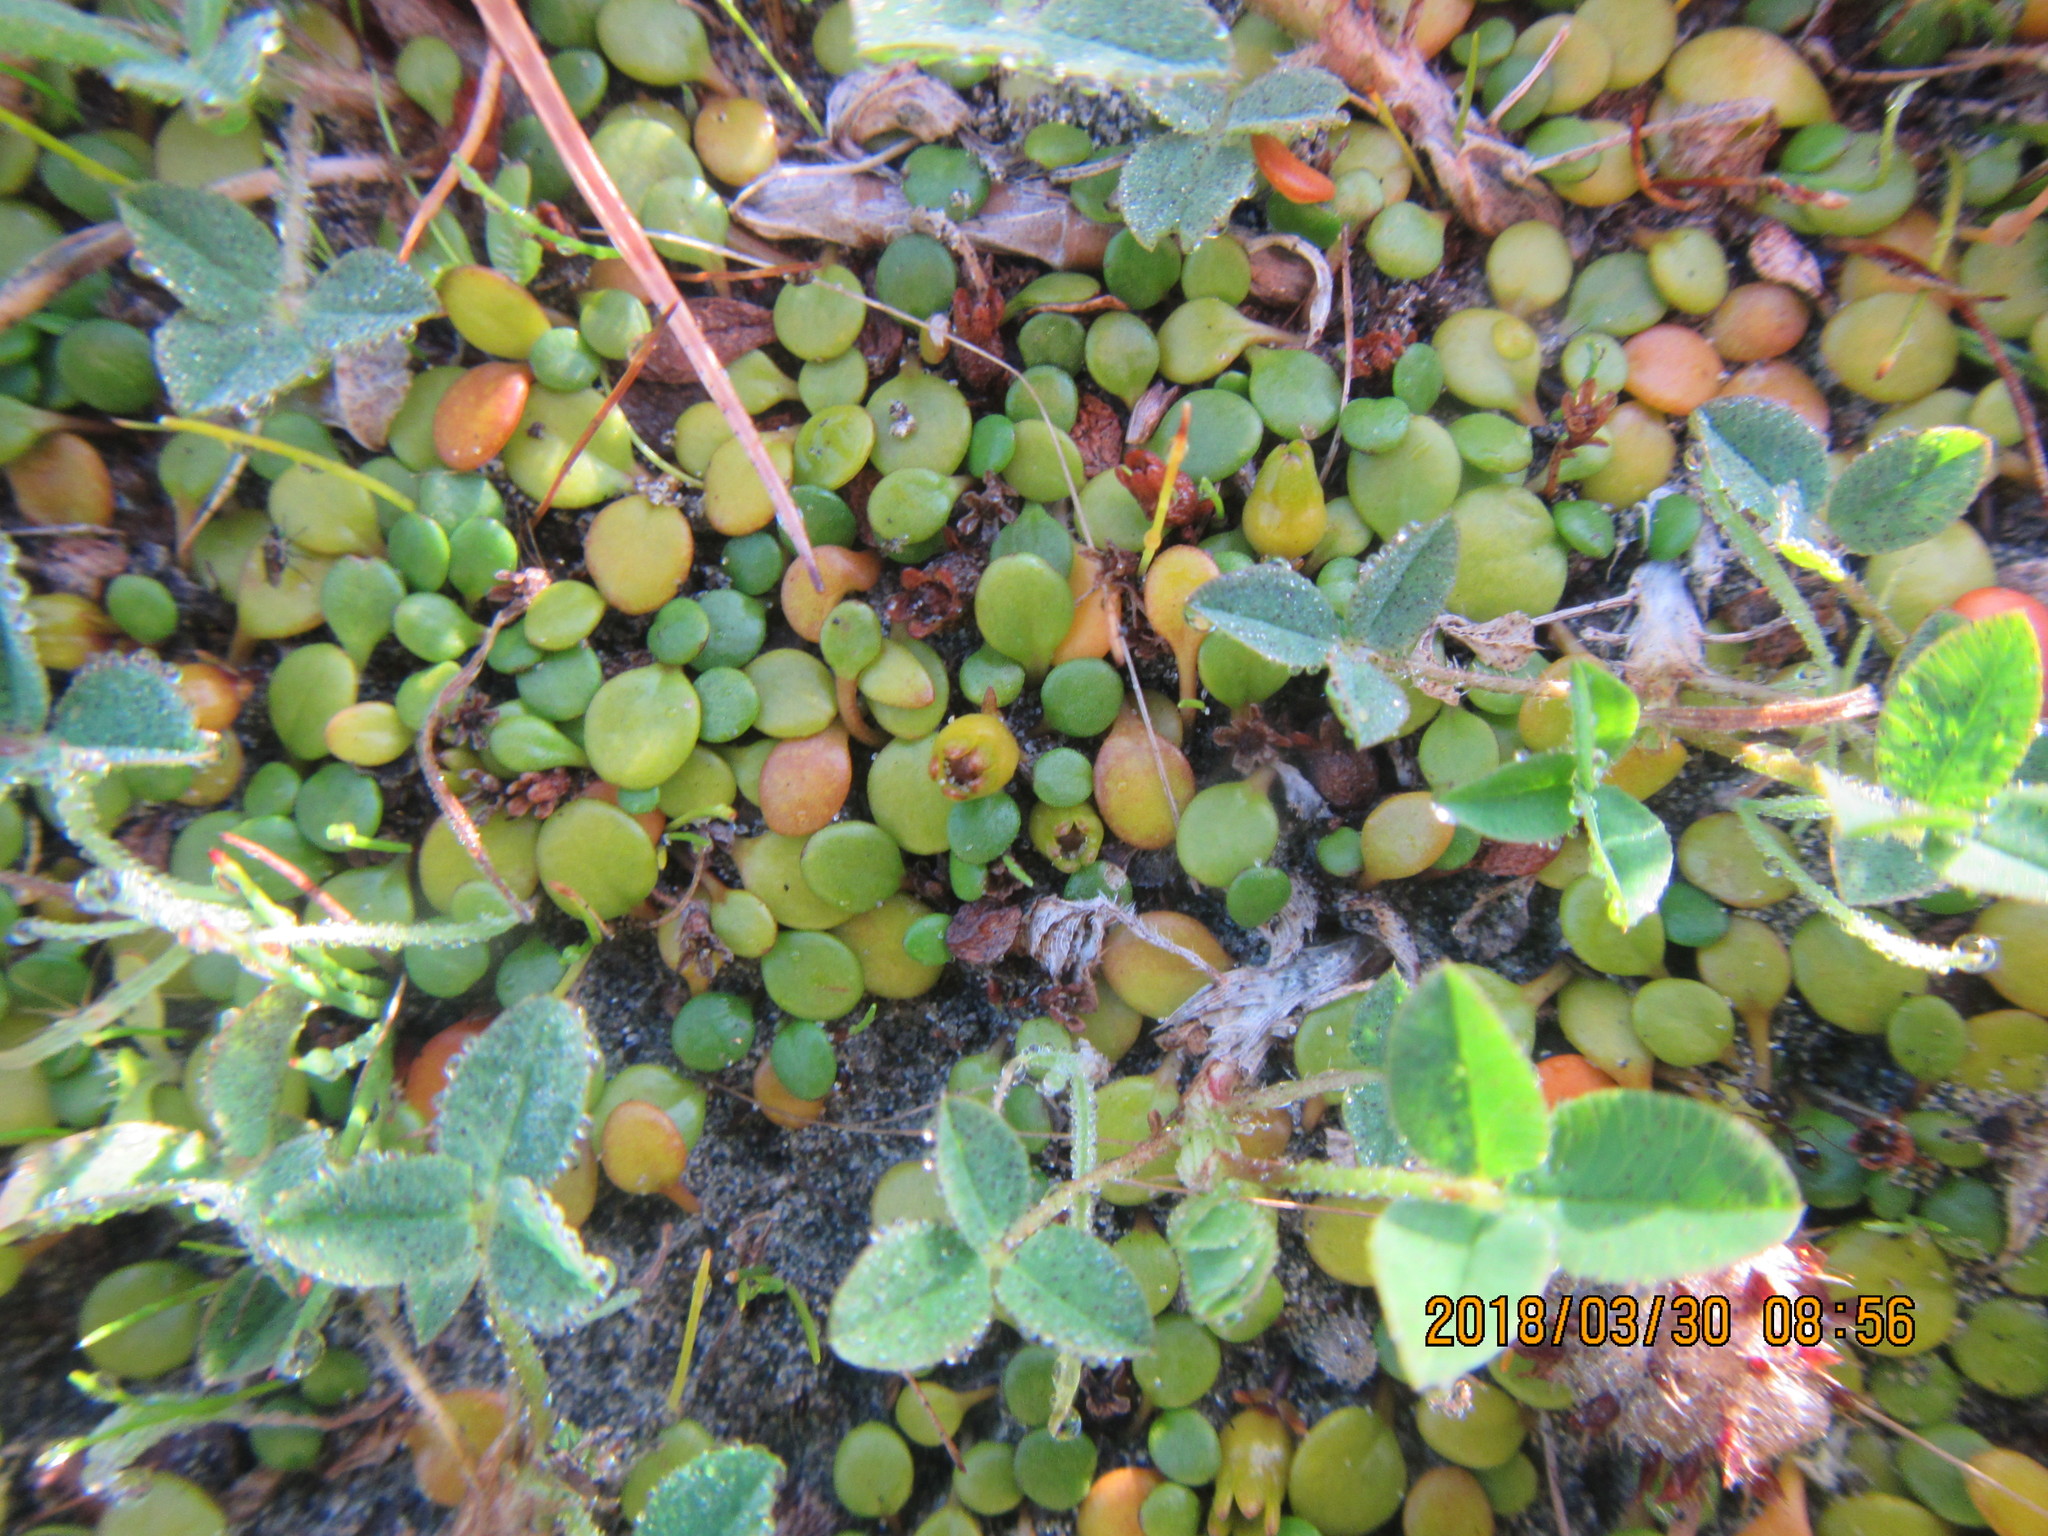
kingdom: Plantae
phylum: Tracheophyta
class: Magnoliopsida
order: Asterales
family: Goodeniaceae
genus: Goodenia
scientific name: Goodenia heenanii
